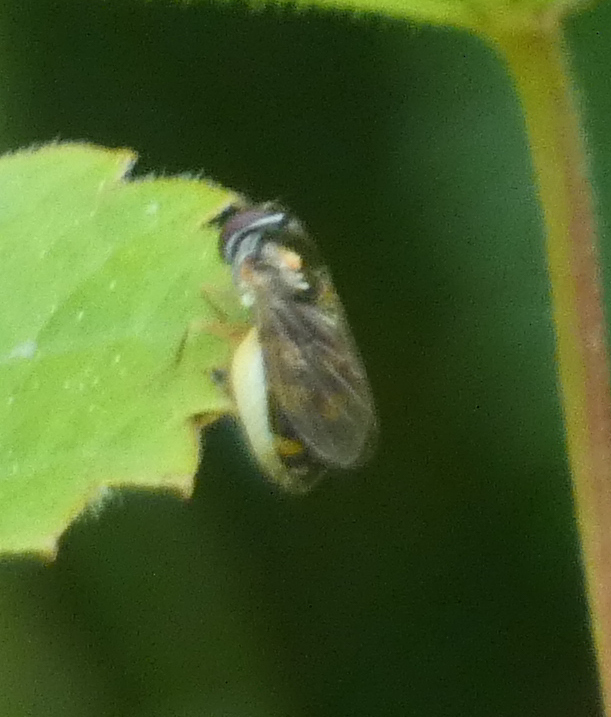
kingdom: Animalia
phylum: Arthropoda
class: Insecta
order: Diptera
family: Syrphidae
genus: Melanostoma
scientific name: Melanostoma mellina
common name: Hover fly
